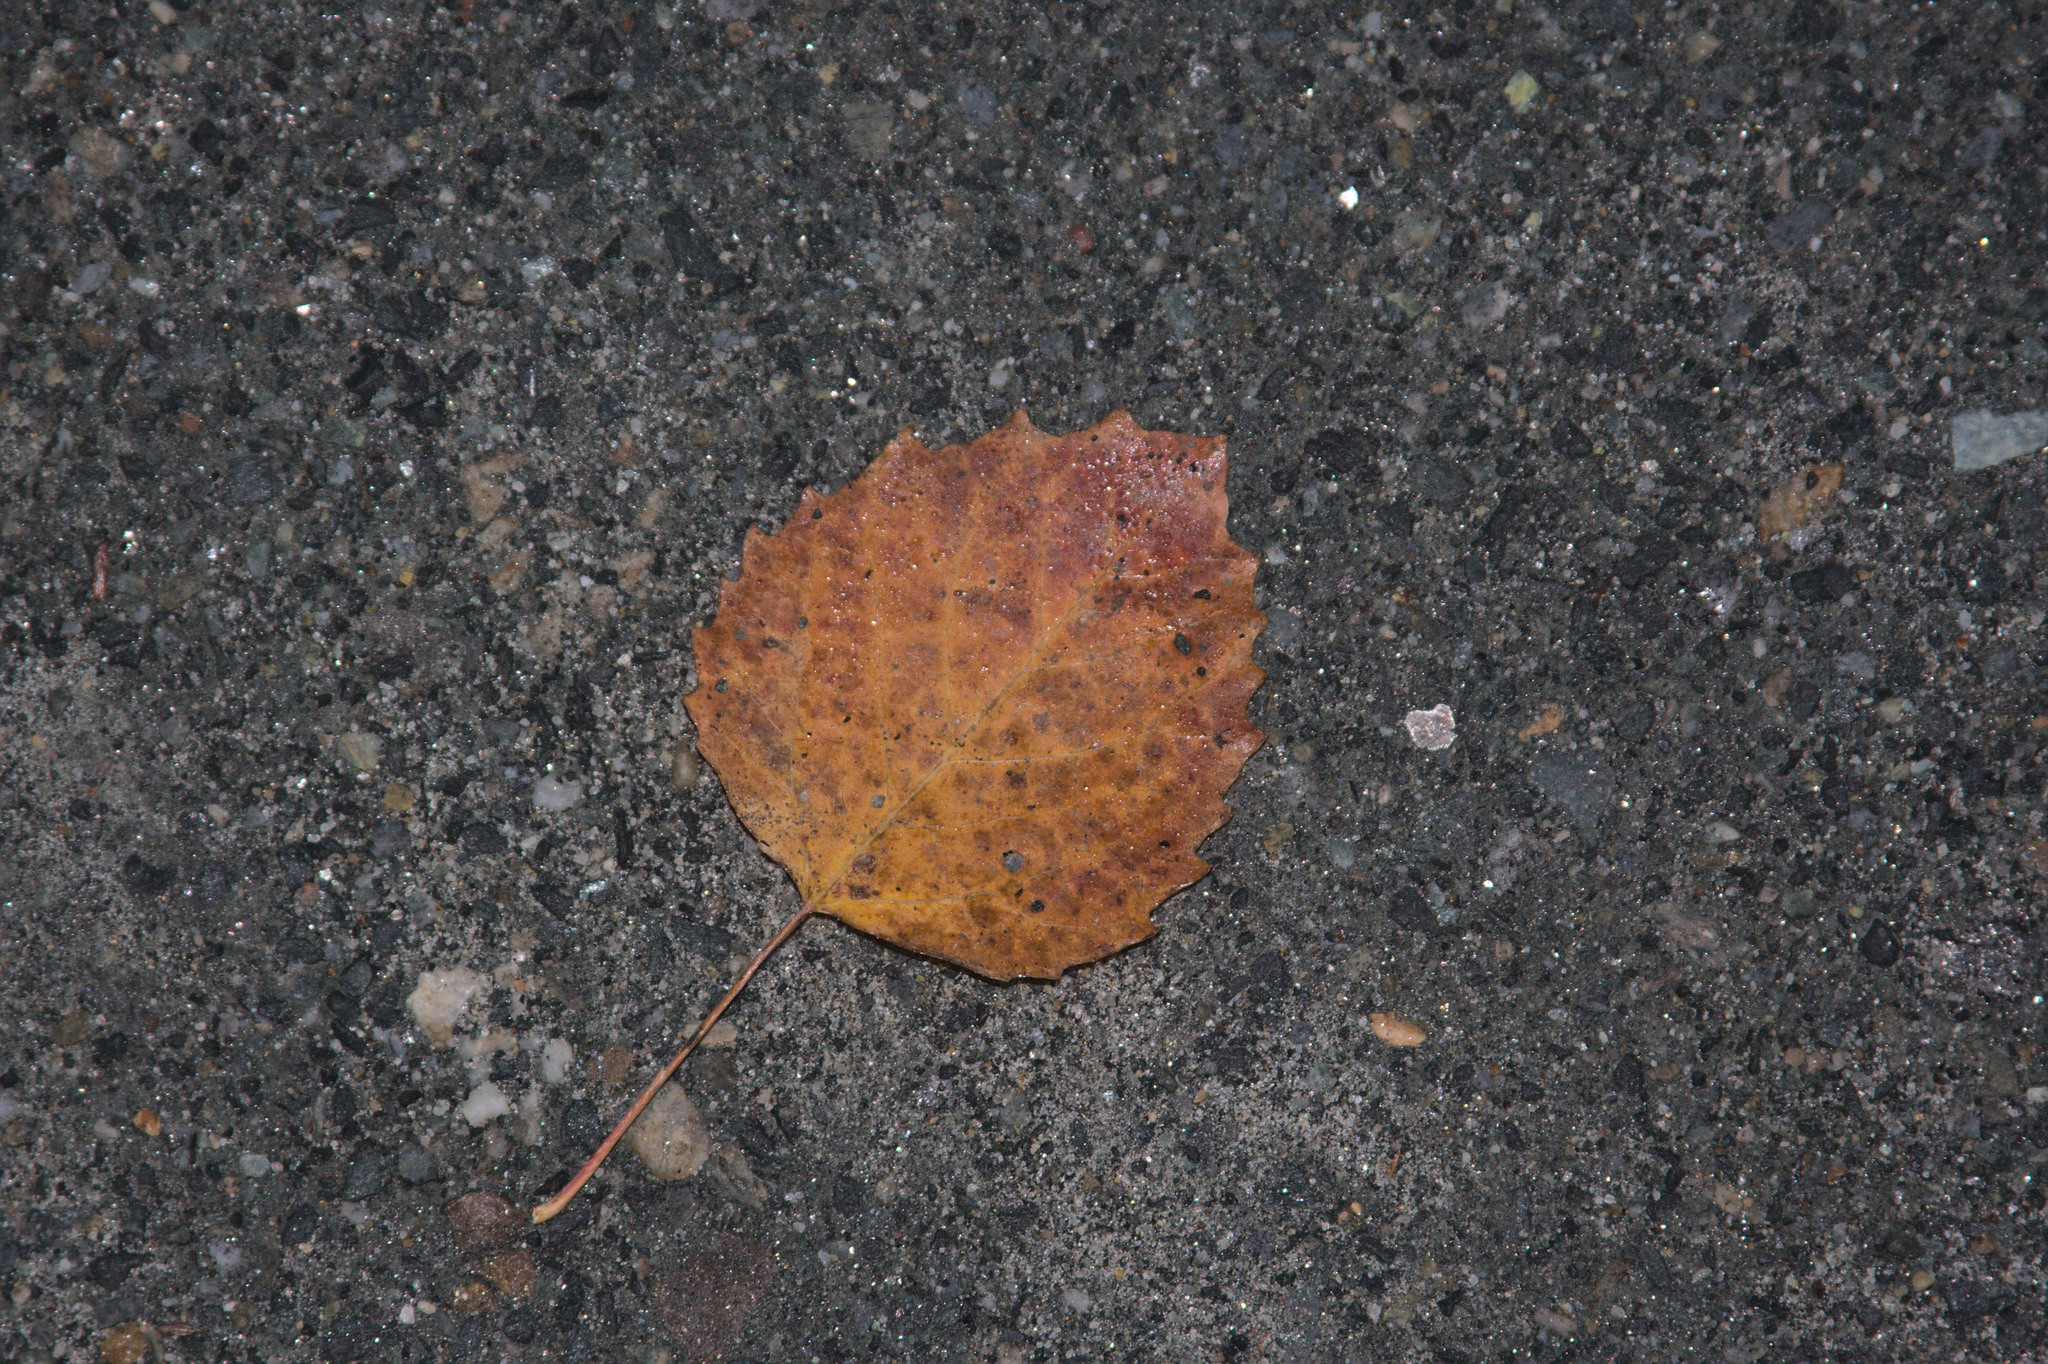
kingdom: Plantae
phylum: Tracheophyta
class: Magnoliopsida
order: Malpighiales
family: Salicaceae
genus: Populus
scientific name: Populus grandidentata
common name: Bigtooth aspen
